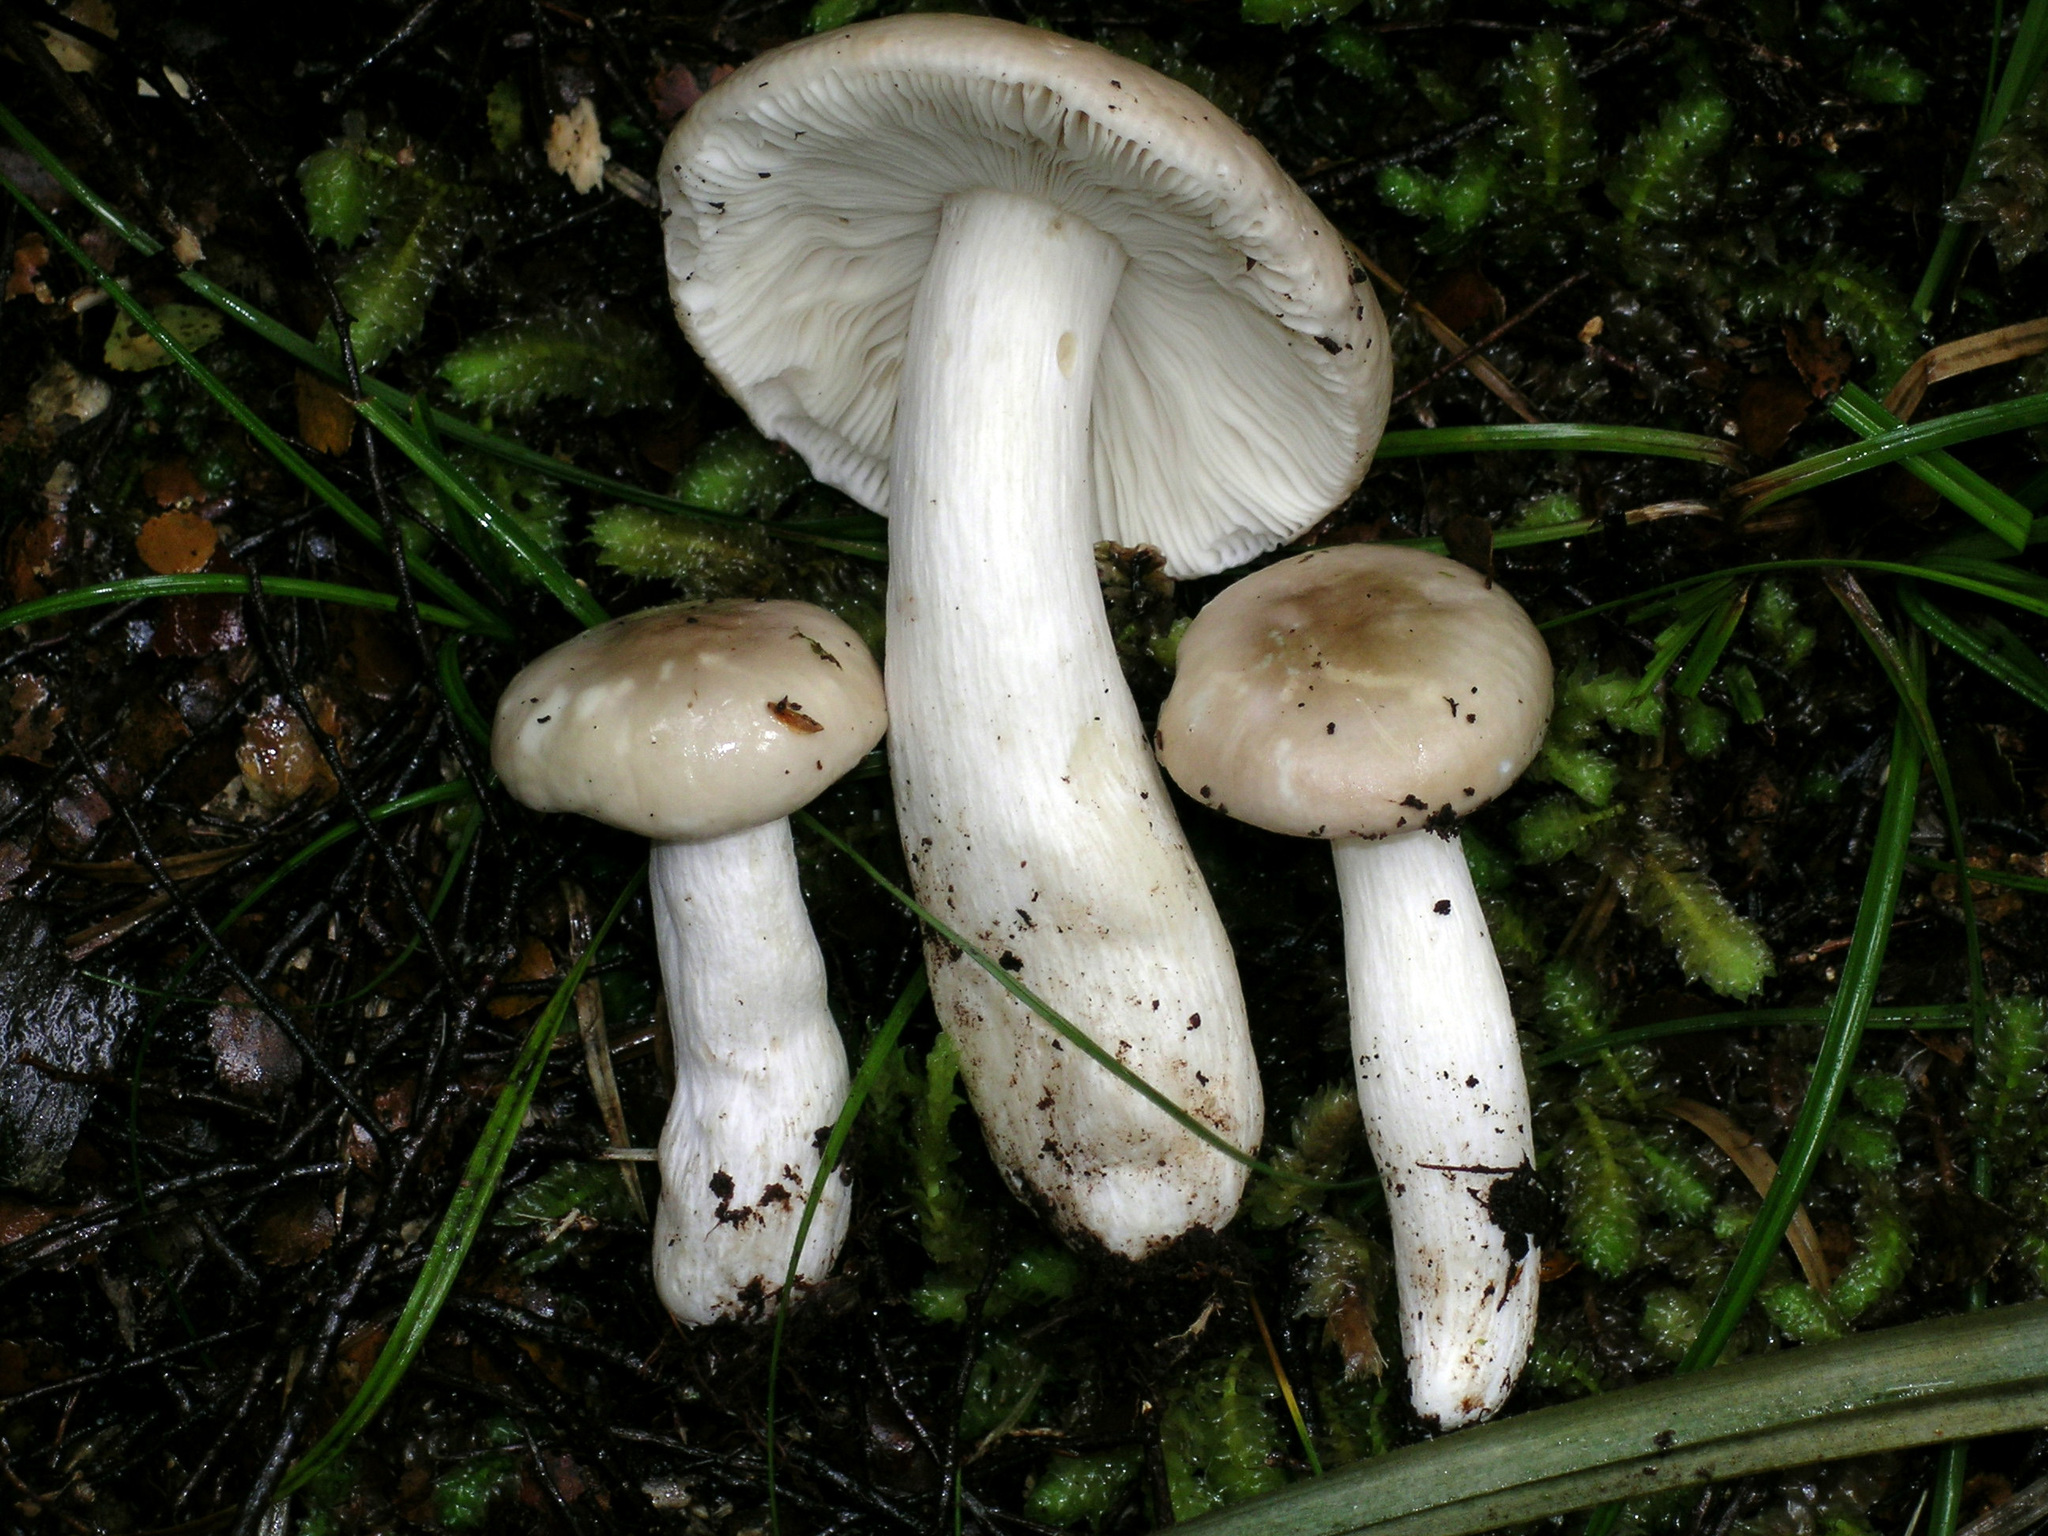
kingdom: Fungi
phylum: Basidiomycota
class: Agaricomycetes
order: Russulales
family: Russulaceae
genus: Russula
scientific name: Russula purpureotincta
